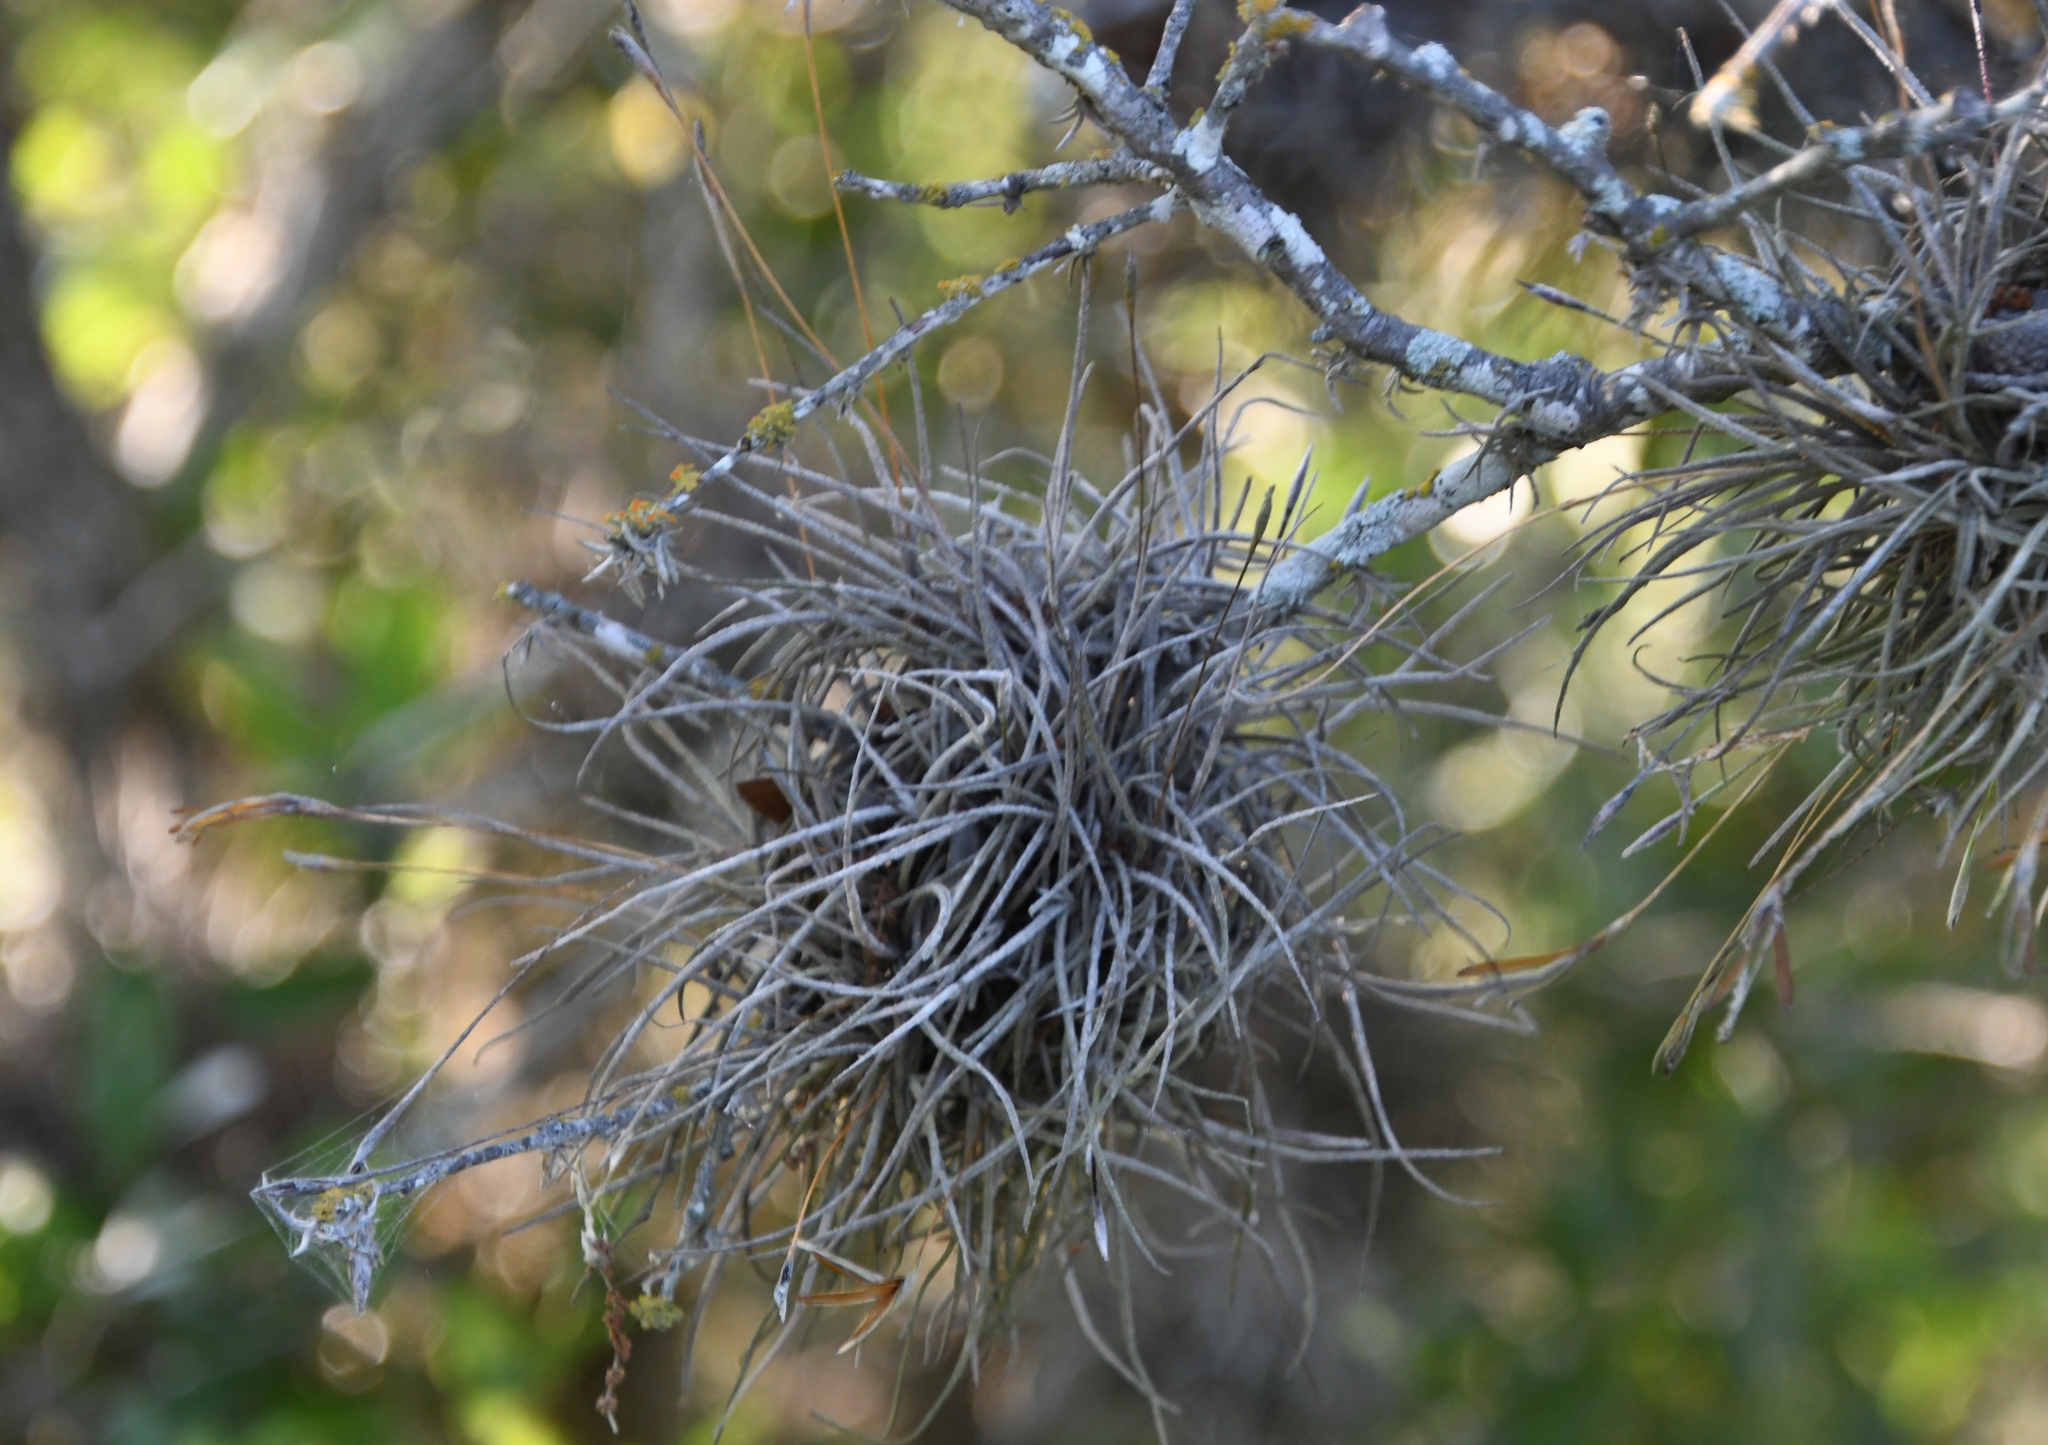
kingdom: Plantae
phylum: Tracheophyta
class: Liliopsida
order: Poales
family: Bromeliaceae
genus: Tillandsia
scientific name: Tillandsia recurvata
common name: Small ballmoss
